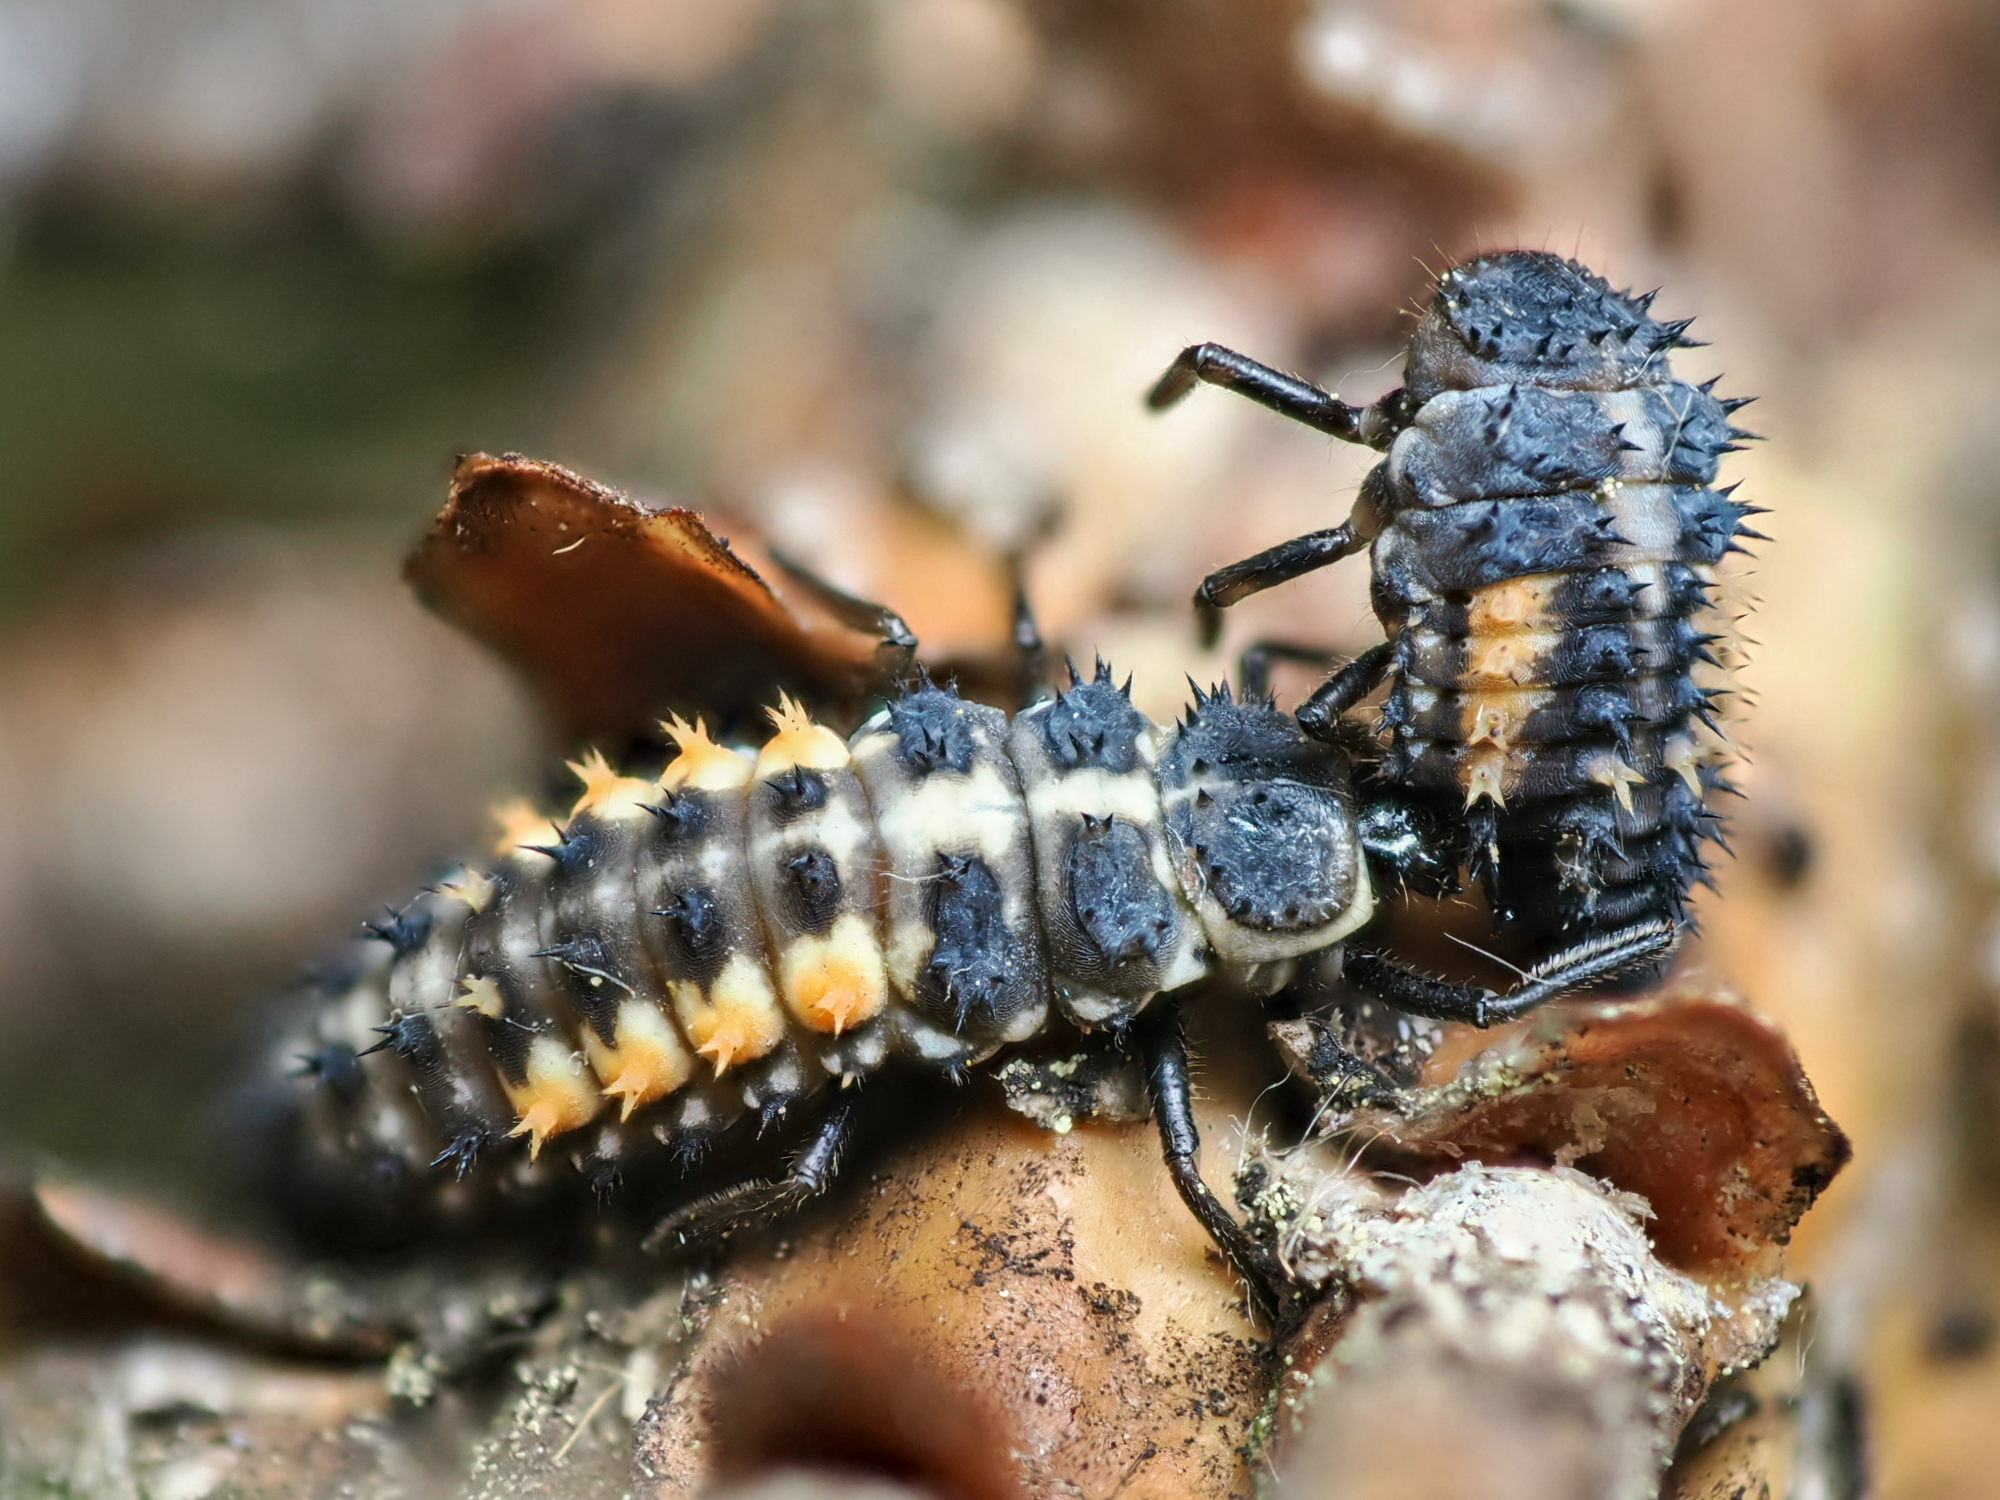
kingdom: Animalia
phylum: Arthropoda
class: Insecta
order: Coleoptera
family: Coccinellidae
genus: Harmonia
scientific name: Harmonia quadripunctata
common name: Cream-streaked ladybird
